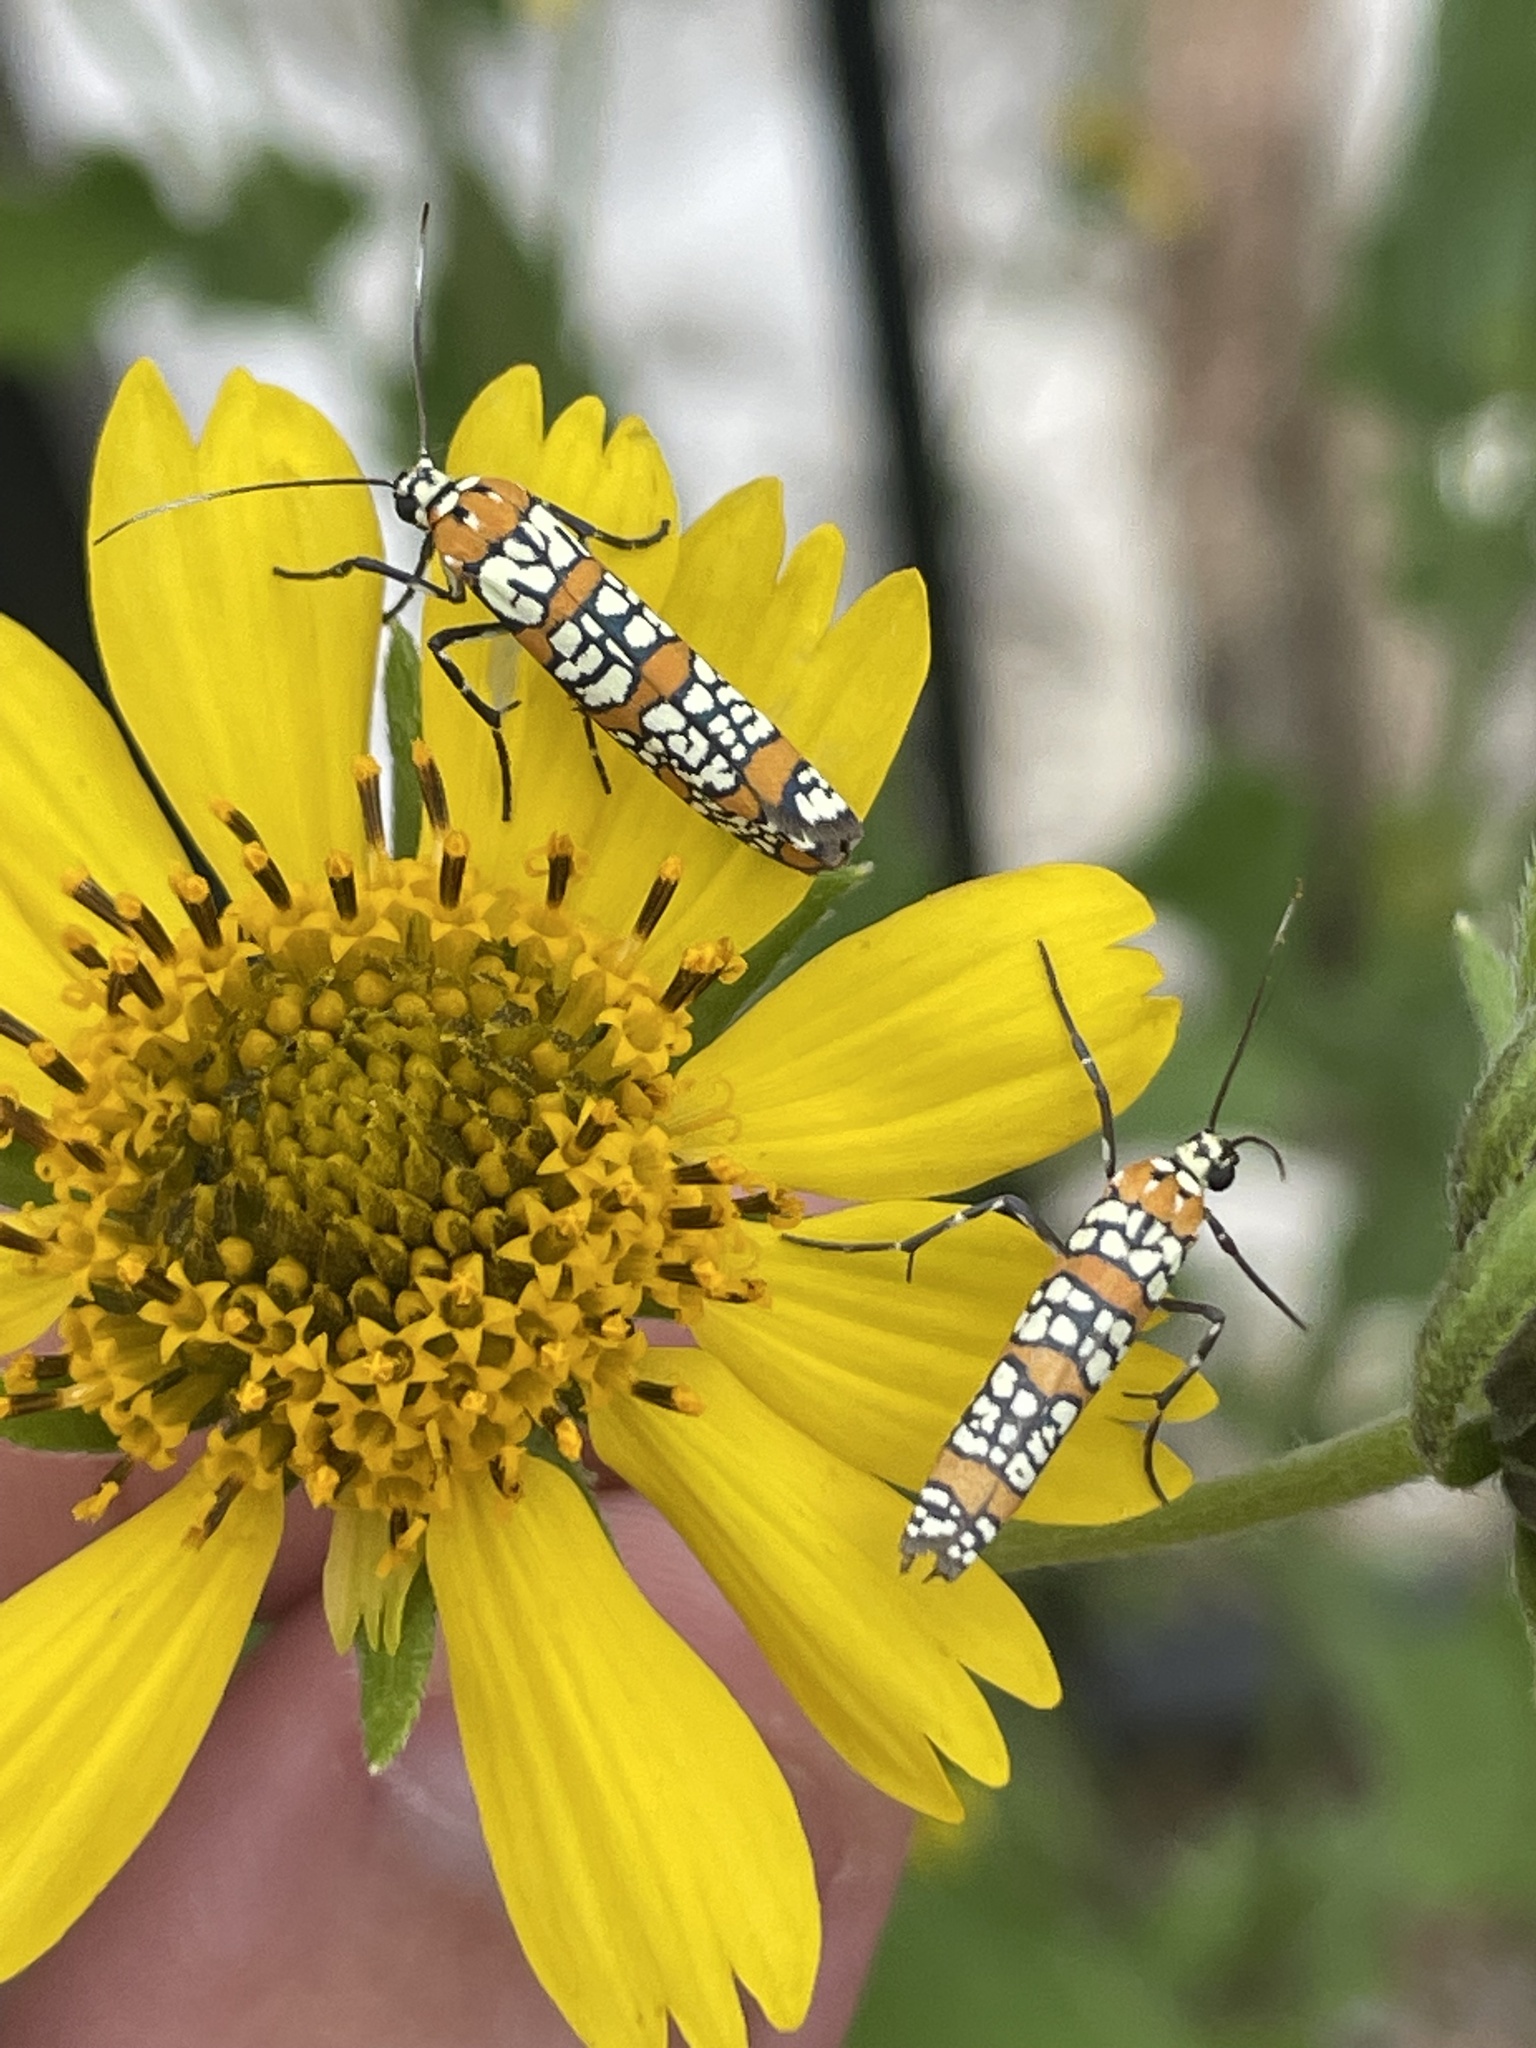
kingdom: Animalia
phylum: Arthropoda
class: Insecta
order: Lepidoptera
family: Attevidae
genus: Atteva
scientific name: Atteva punctella
